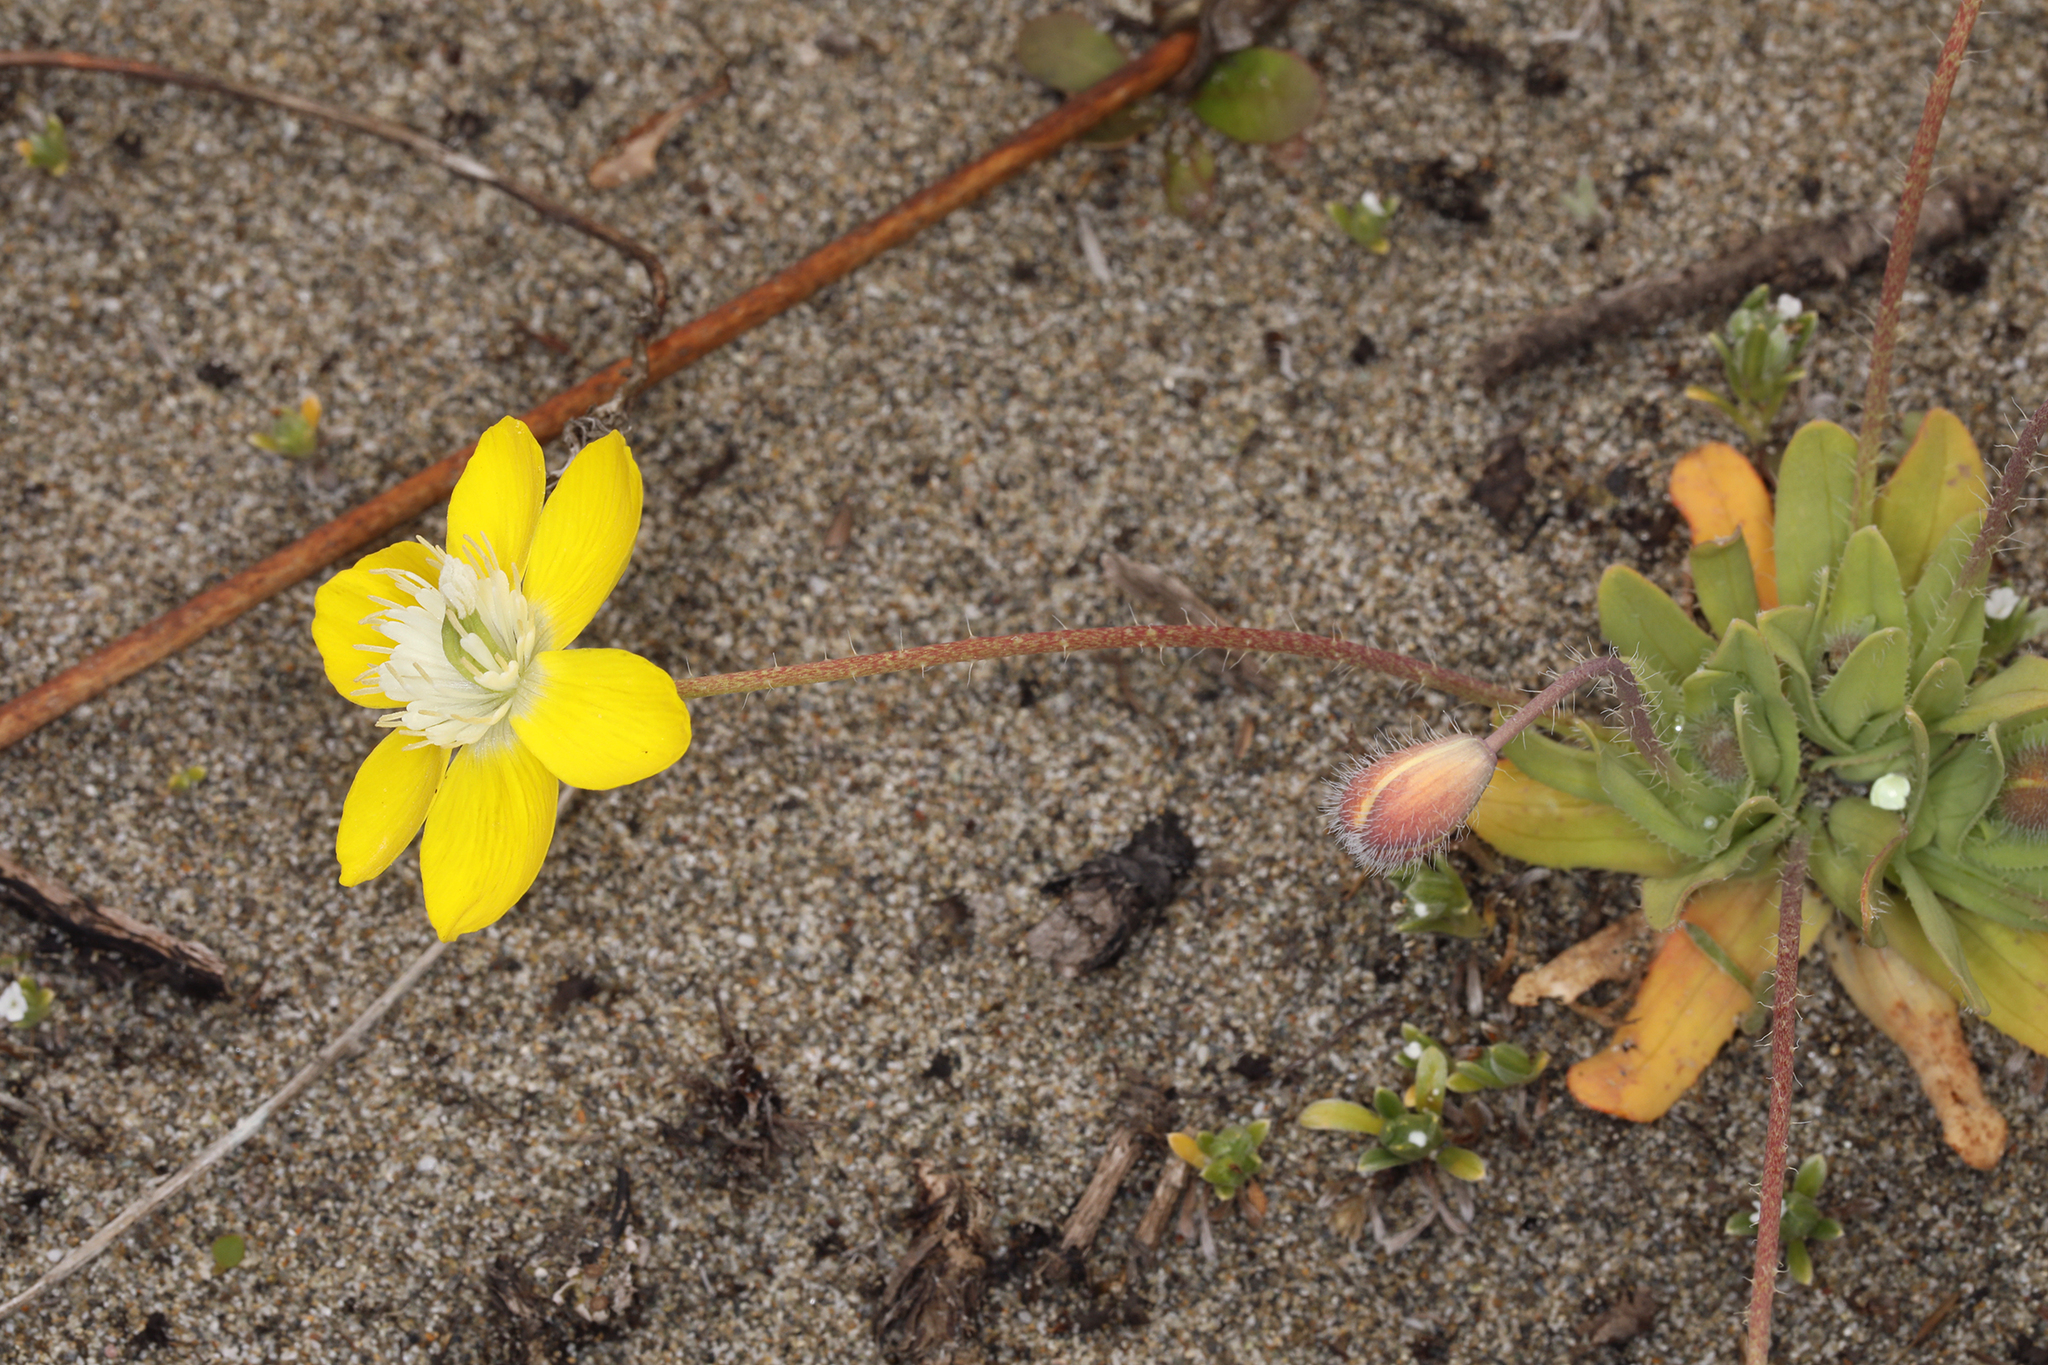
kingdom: Plantae
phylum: Tracheophyta
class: Magnoliopsida
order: Ranunculales
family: Papaveraceae
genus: Platystemon
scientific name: Platystemon californicus
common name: Cream-cups
